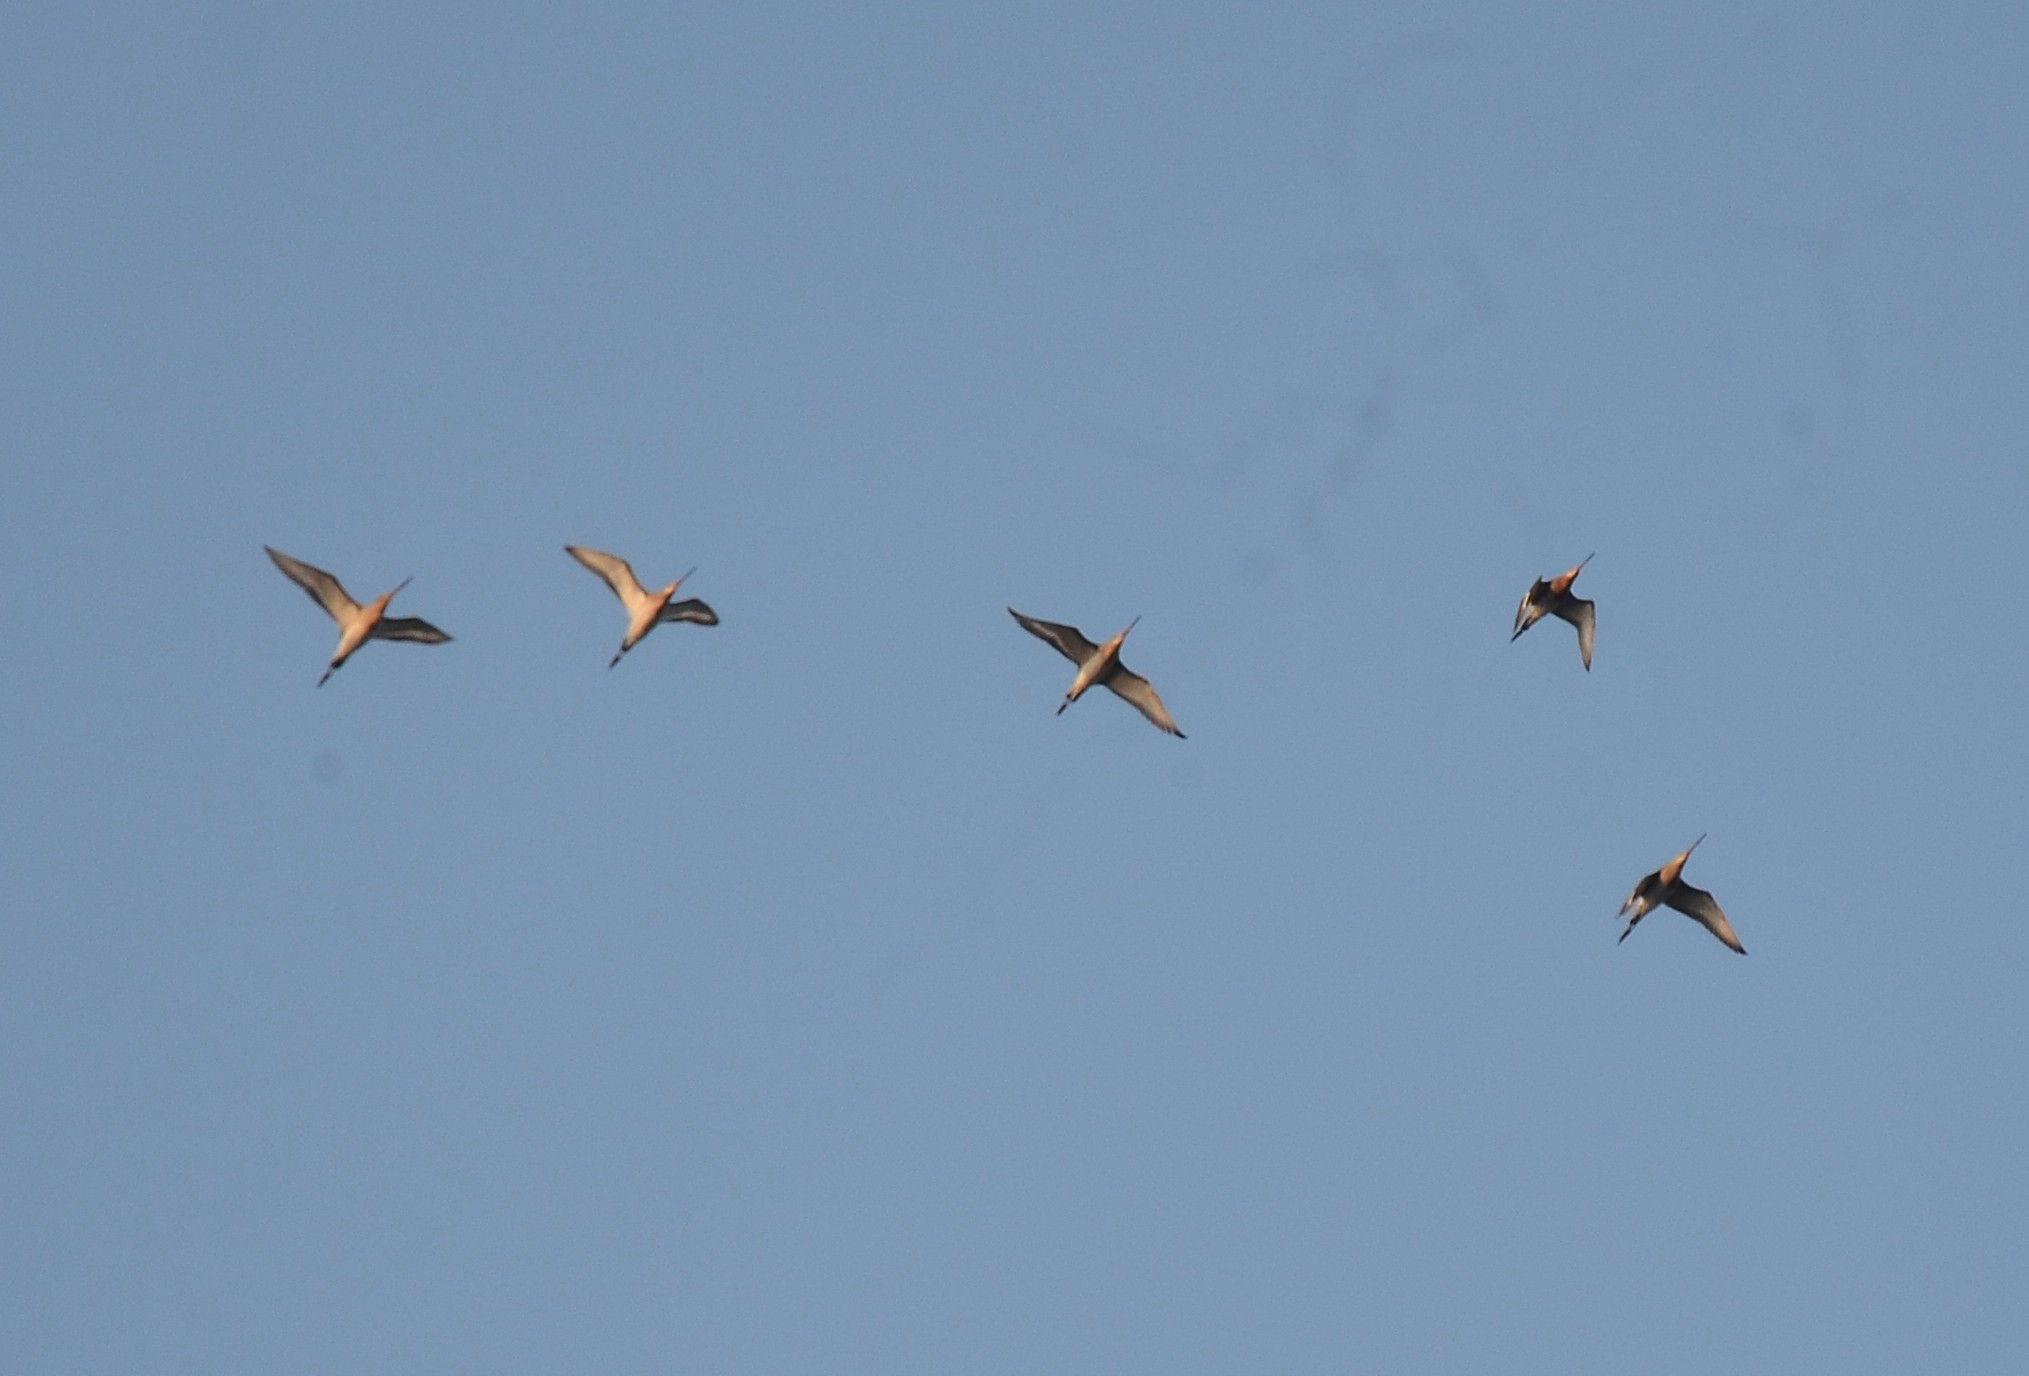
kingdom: Animalia
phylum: Chordata
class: Aves
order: Charadriiformes
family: Scolopacidae
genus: Limosa
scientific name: Limosa limosa
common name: Black-tailed godwit
